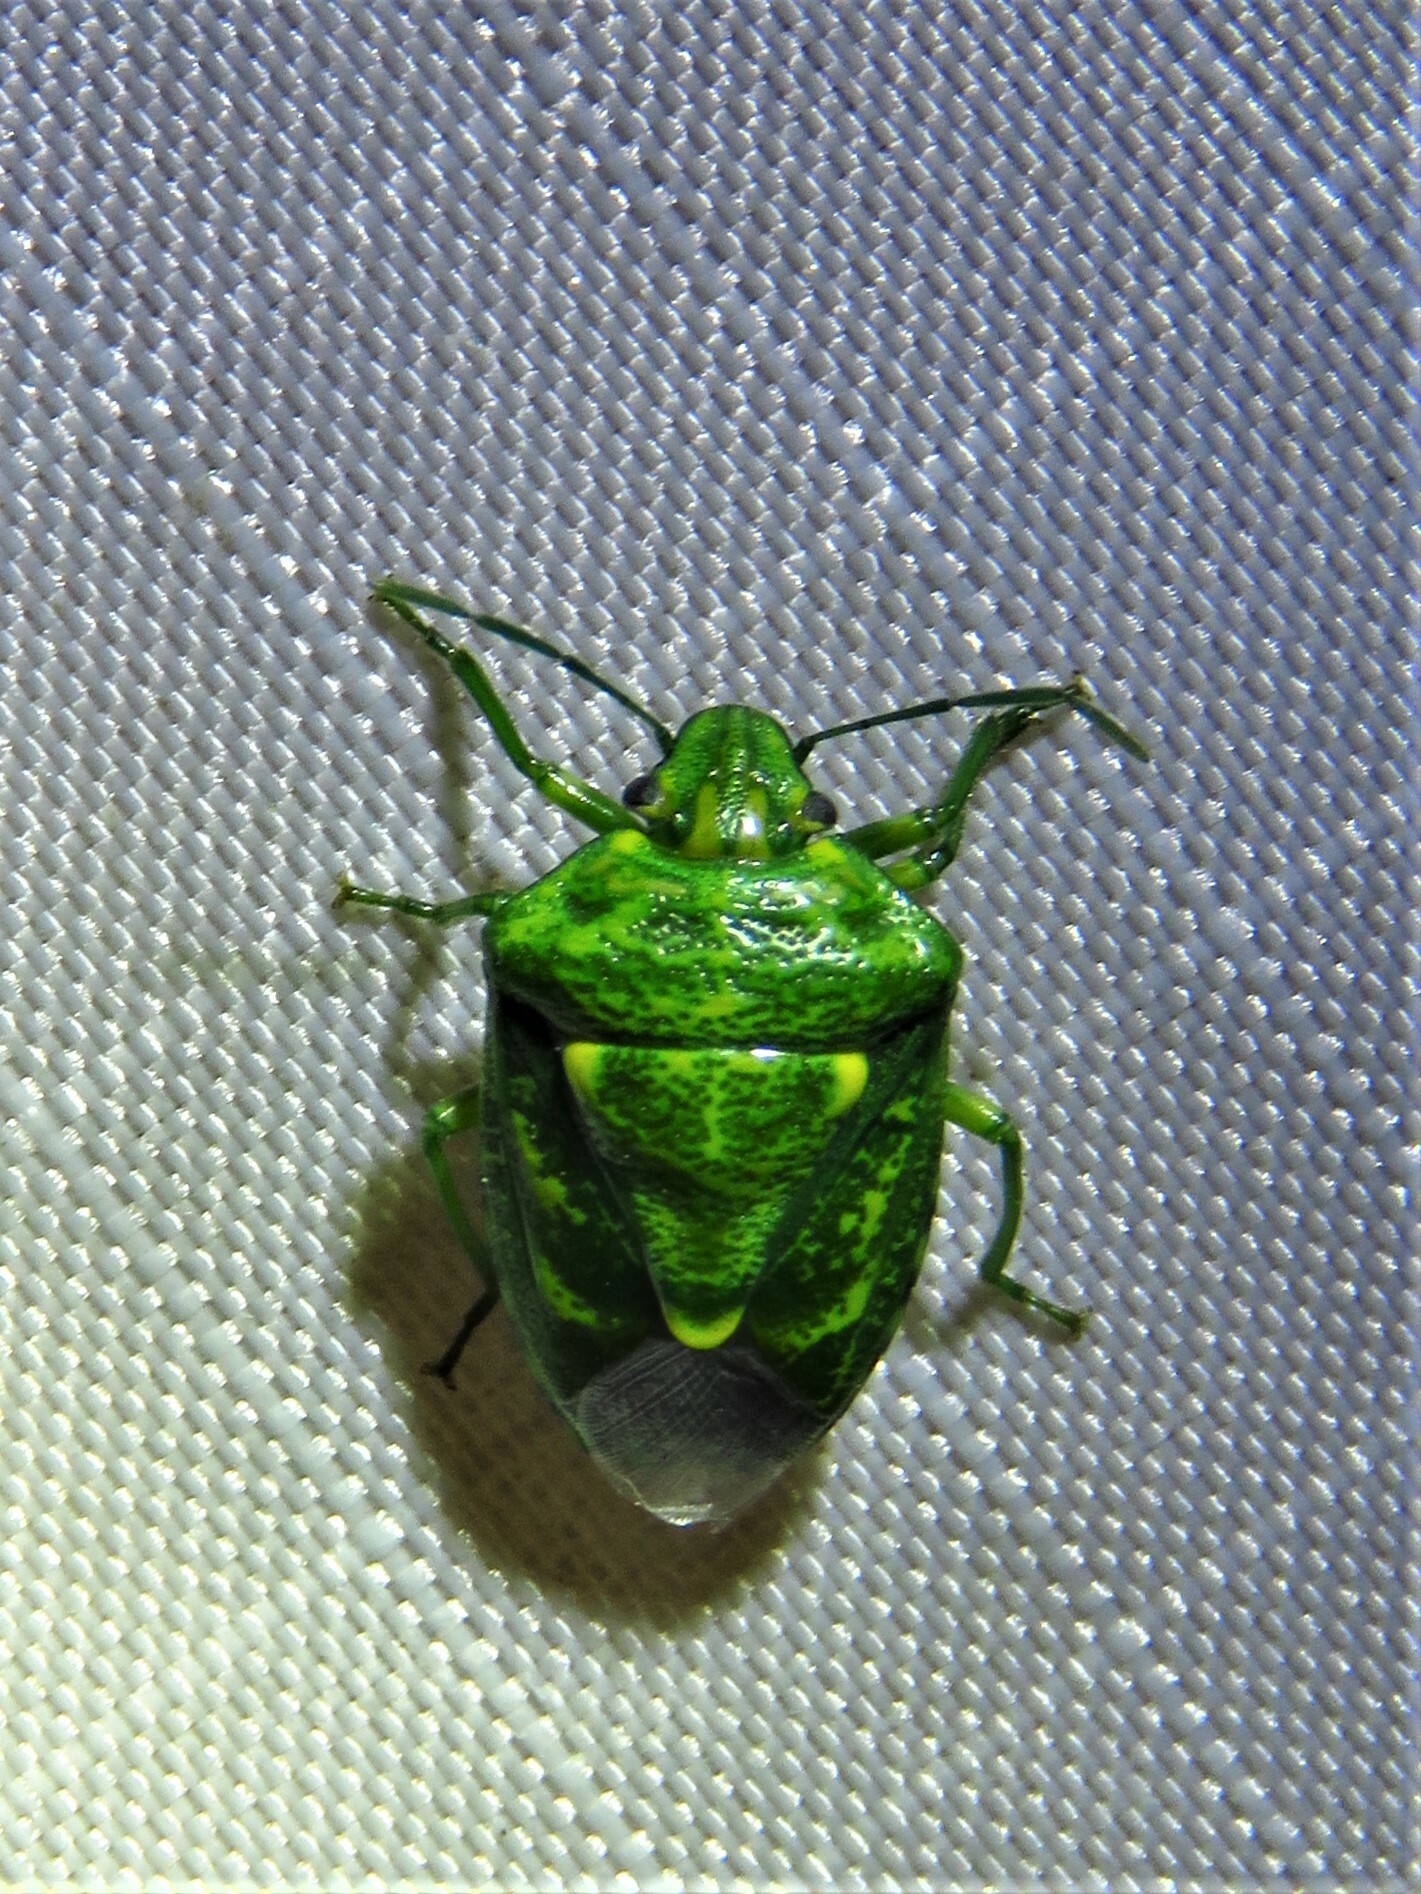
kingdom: Animalia
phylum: Arthropoda
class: Insecta
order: Hemiptera
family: Pentatomidae
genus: Banasa
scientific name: Banasa euchlora
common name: Cedar berry bug
